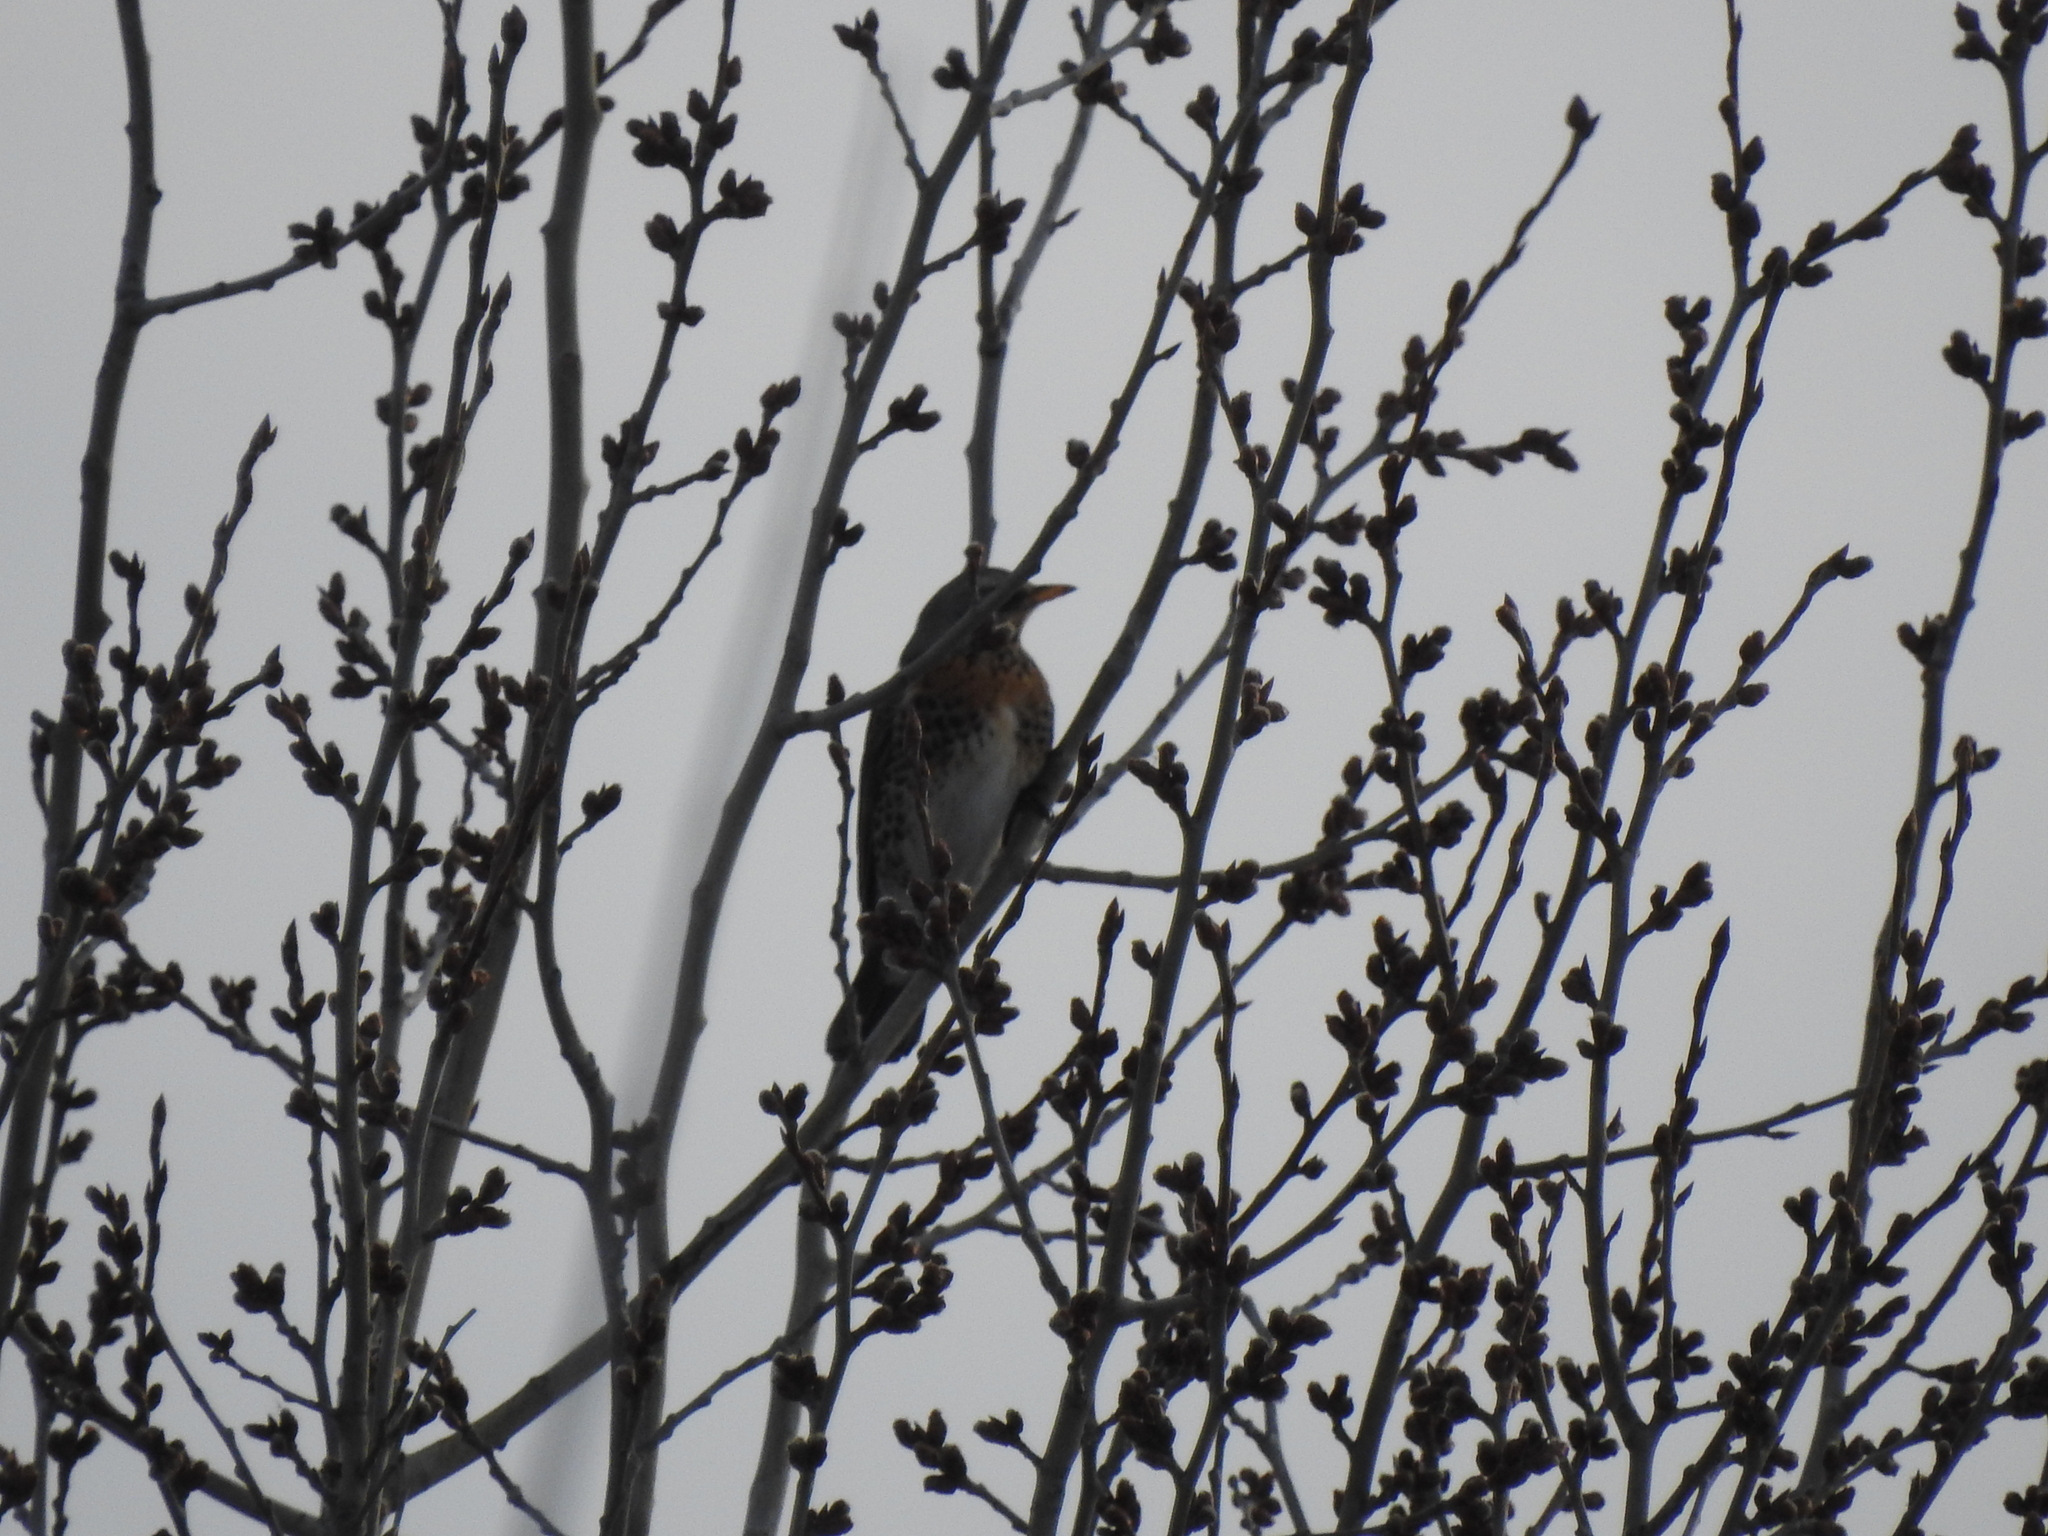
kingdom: Animalia
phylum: Chordata
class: Aves
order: Passeriformes
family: Turdidae
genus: Turdus
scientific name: Turdus pilaris
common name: Fieldfare
